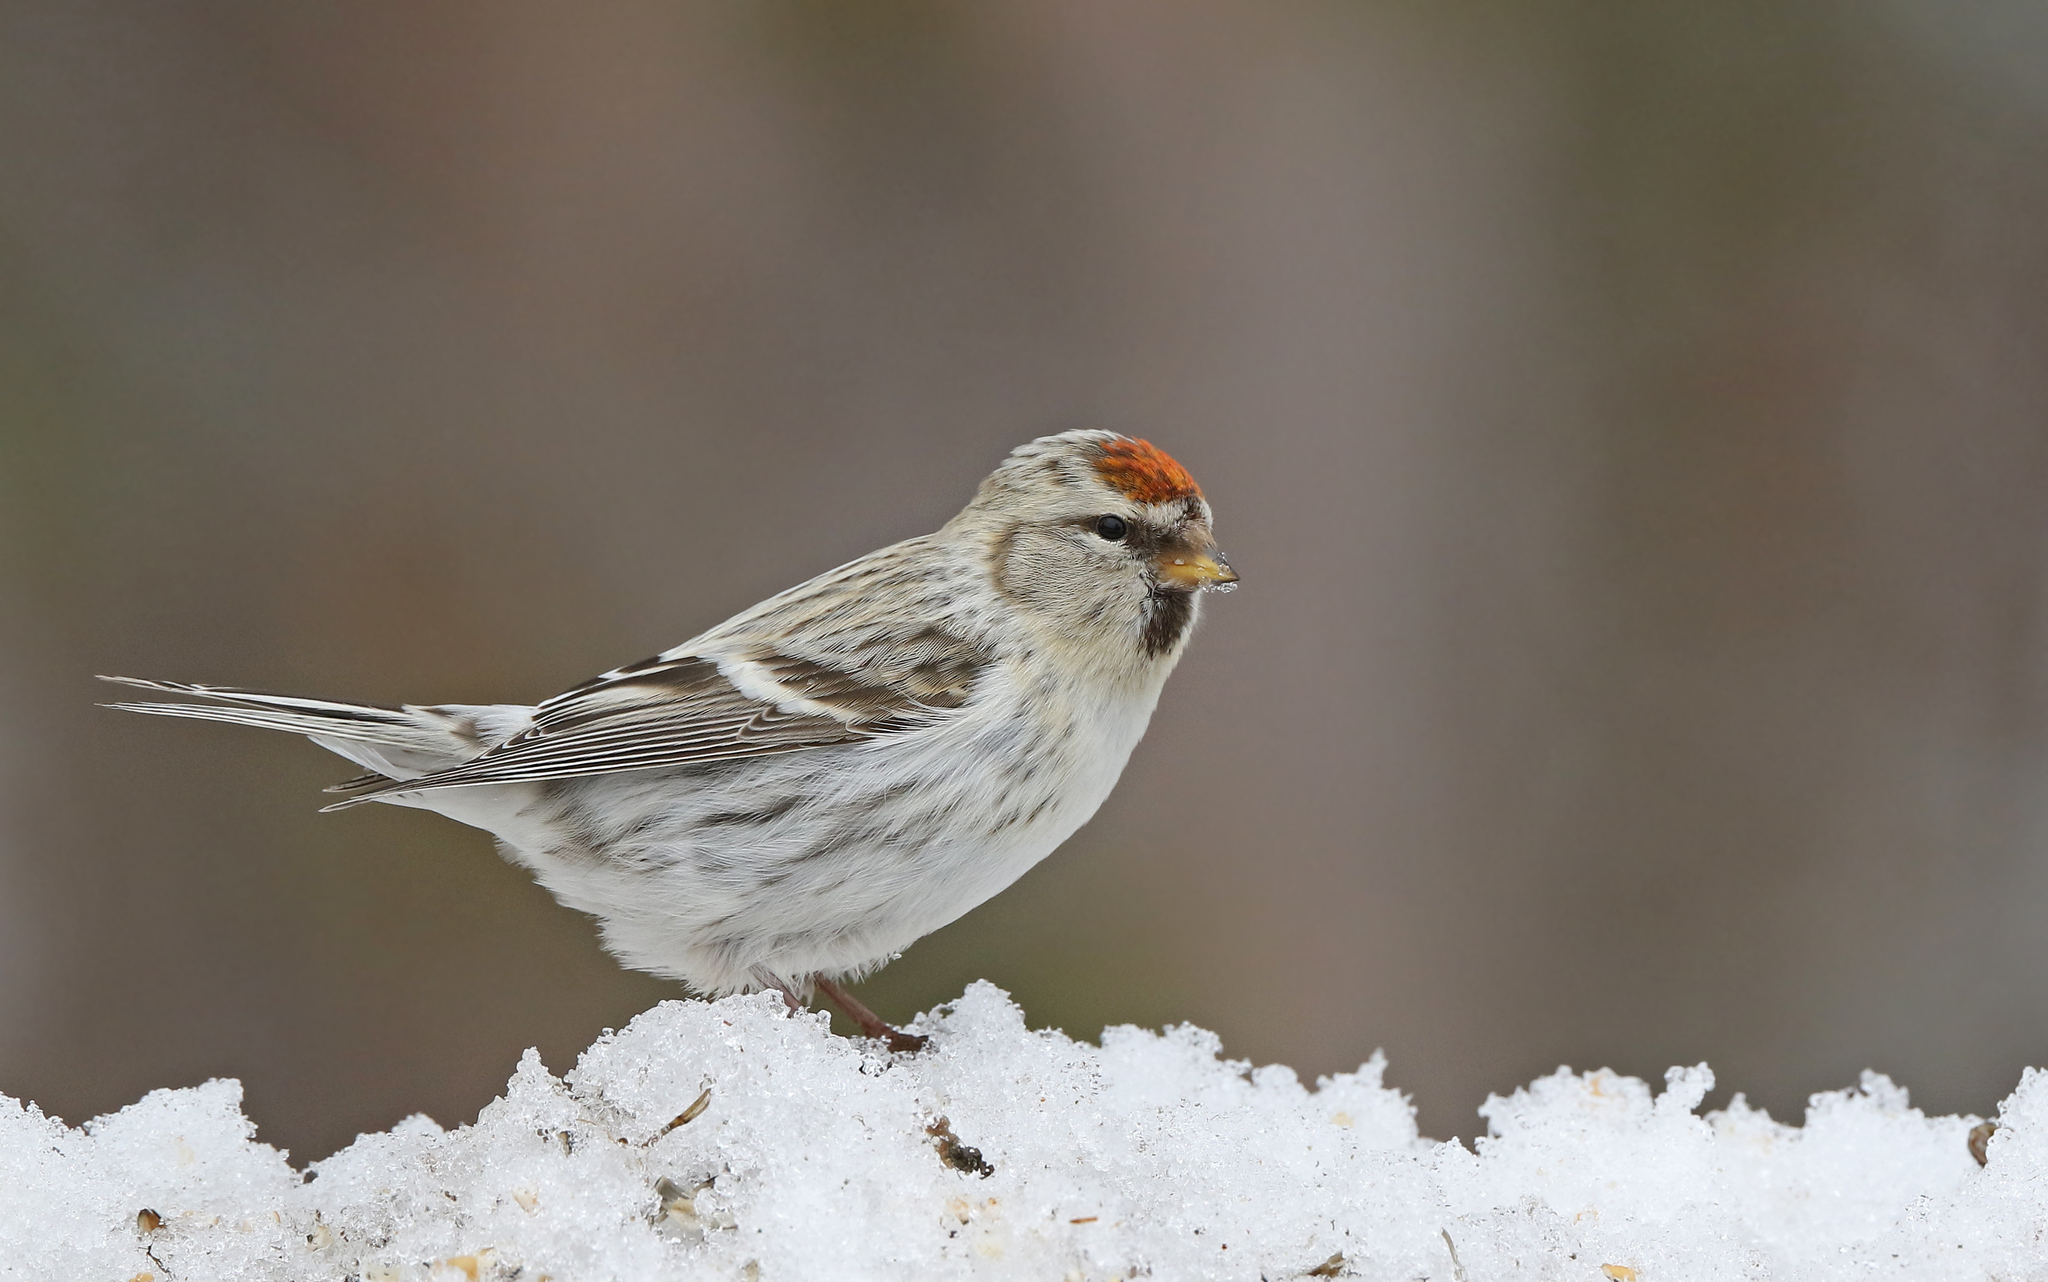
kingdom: Animalia
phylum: Chordata
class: Aves
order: Passeriformes
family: Fringillidae
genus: Acanthis
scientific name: Acanthis flammea
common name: Common redpoll
